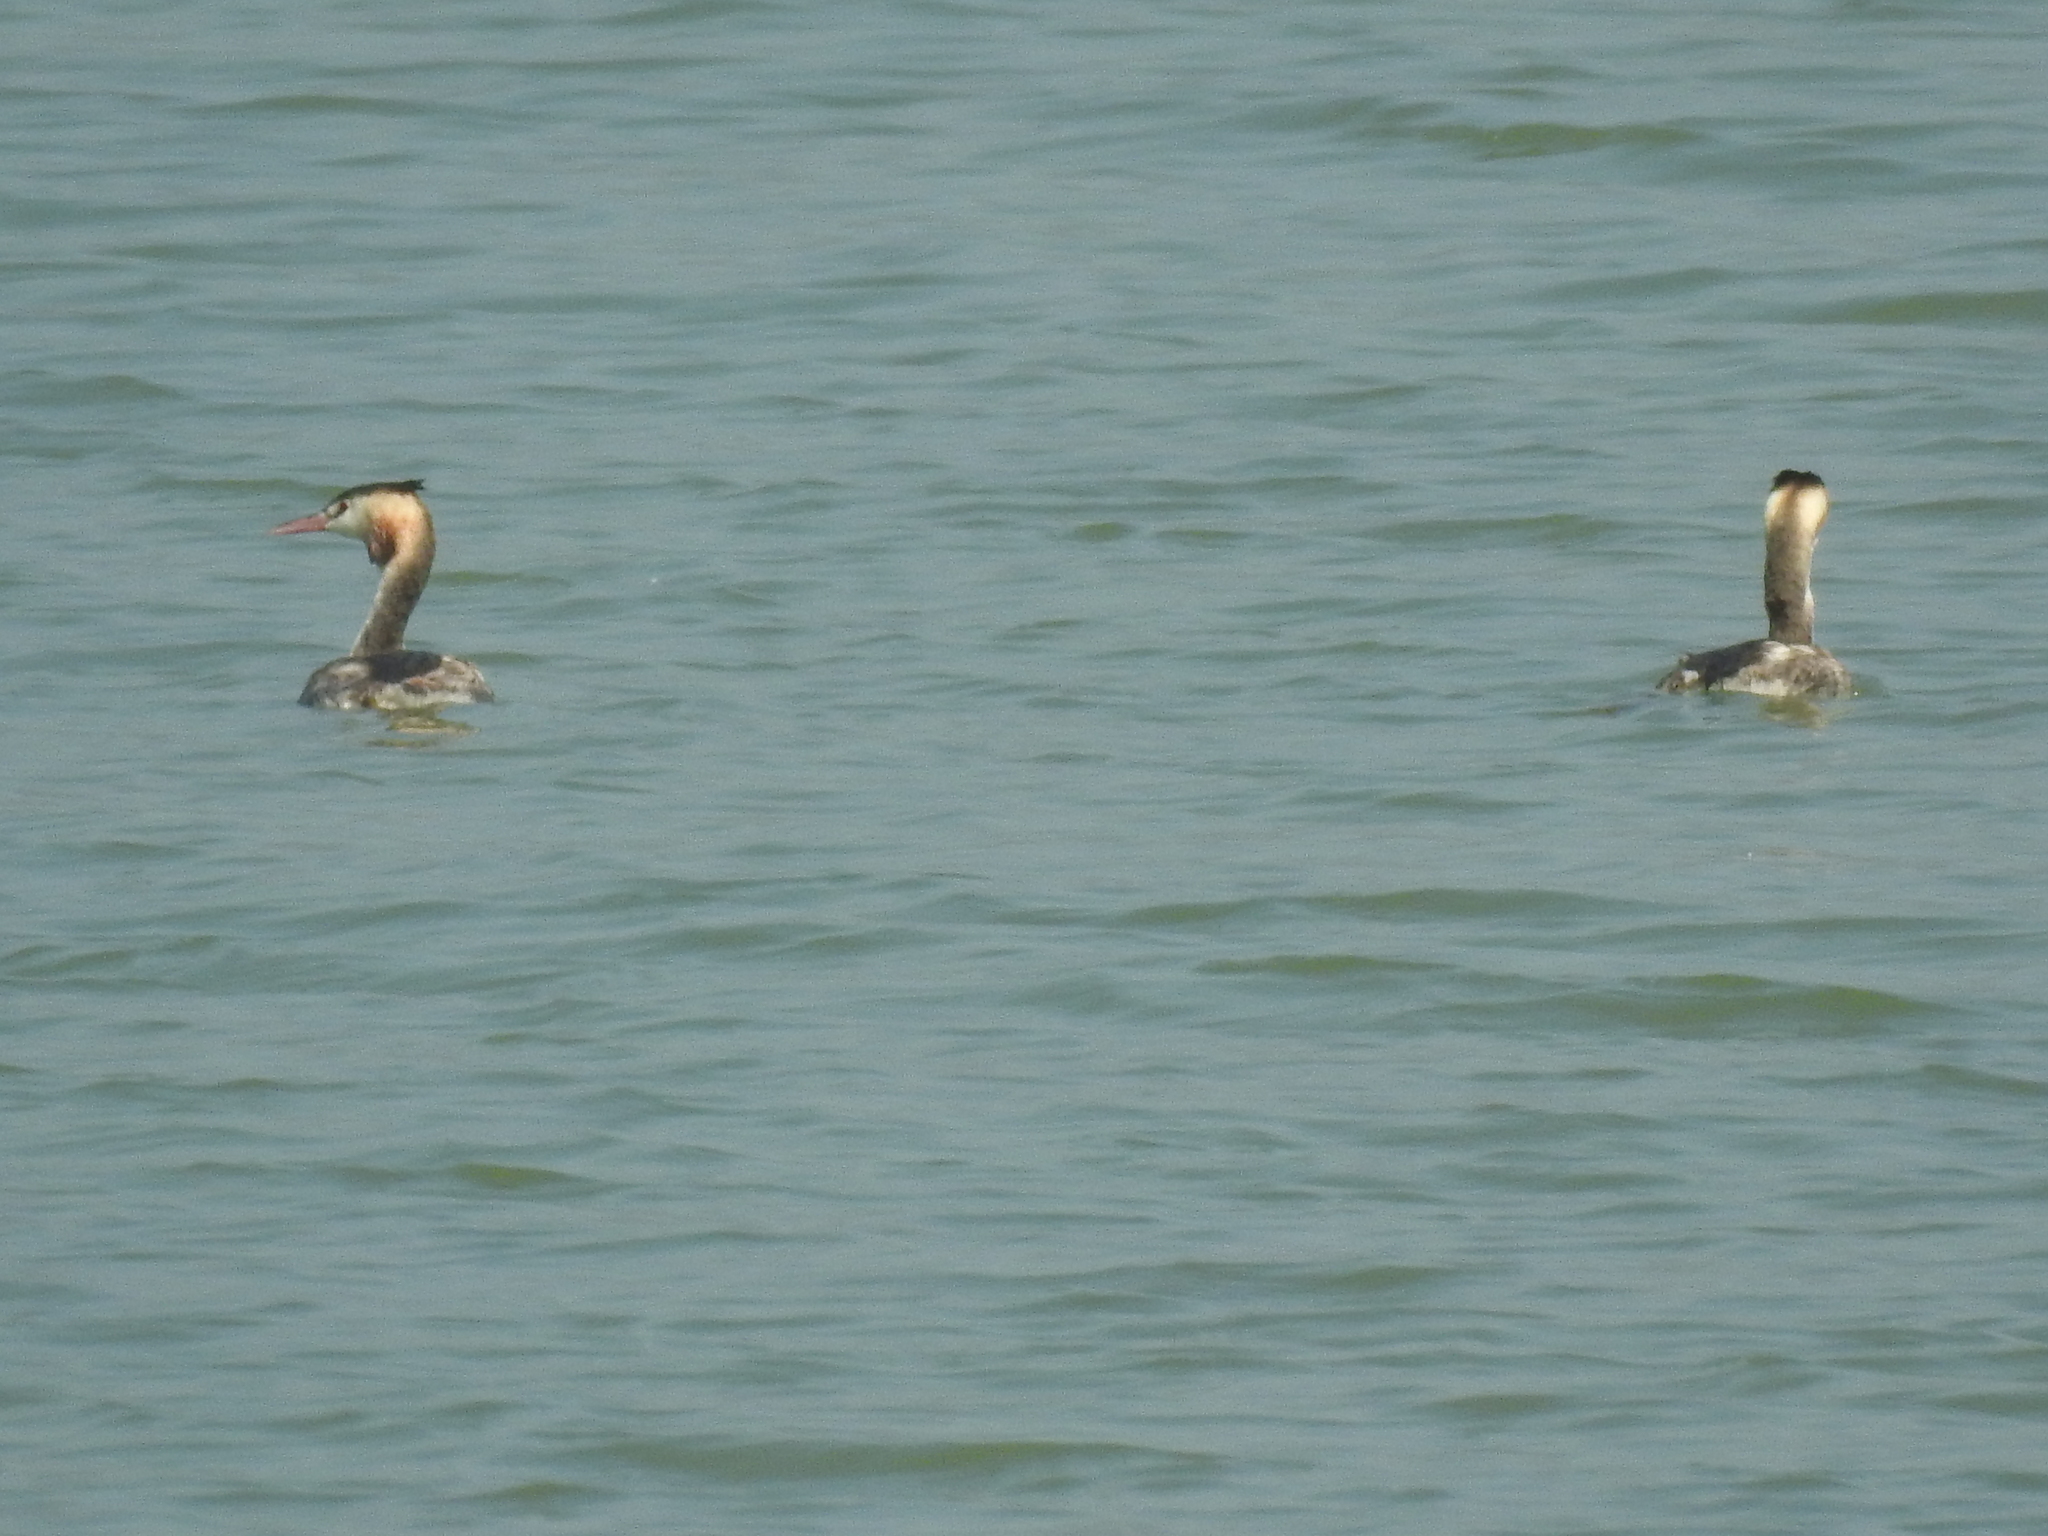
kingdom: Animalia
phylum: Chordata
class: Aves
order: Podicipediformes
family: Podicipedidae
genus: Podiceps
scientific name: Podiceps cristatus
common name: Great crested grebe
